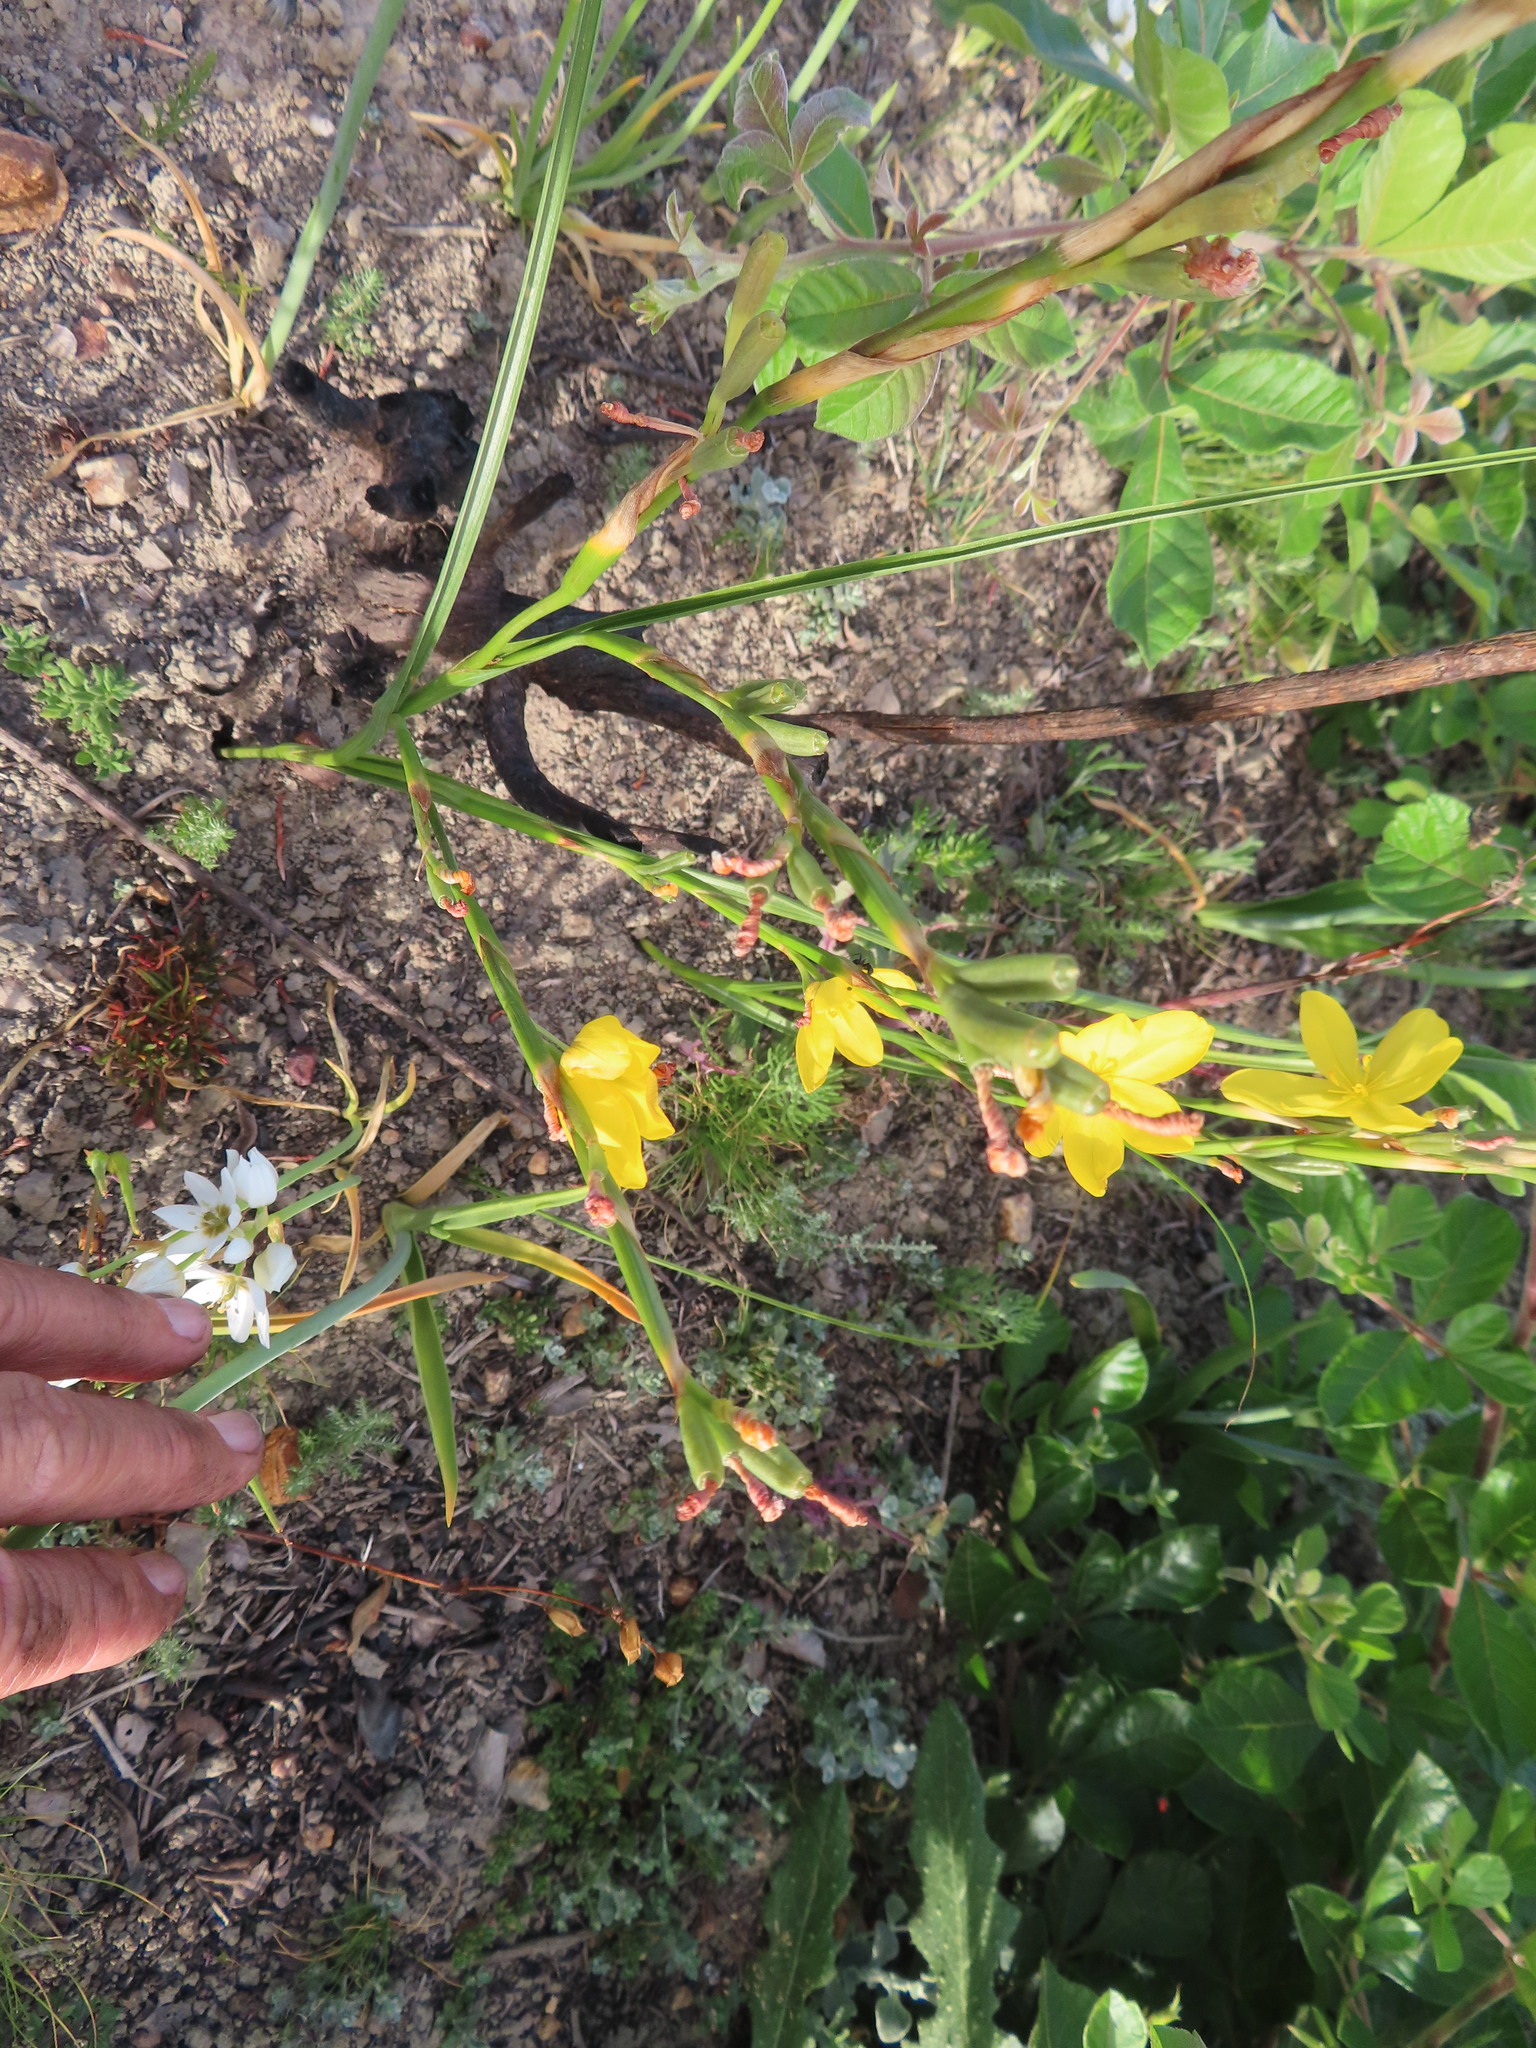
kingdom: Plantae
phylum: Tracheophyta
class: Liliopsida
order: Asparagales
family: Iridaceae
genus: Moraea
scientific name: Moraea lewisiae
